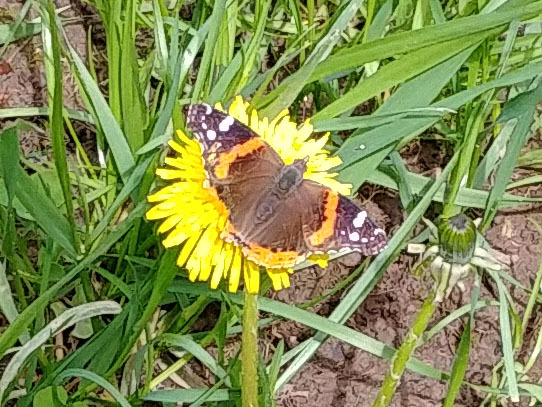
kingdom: Animalia
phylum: Arthropoda
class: Insecta
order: Lepidoptera
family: Nymphalidae
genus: Vanessa
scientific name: Vanessa atalanta
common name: Red admiral
